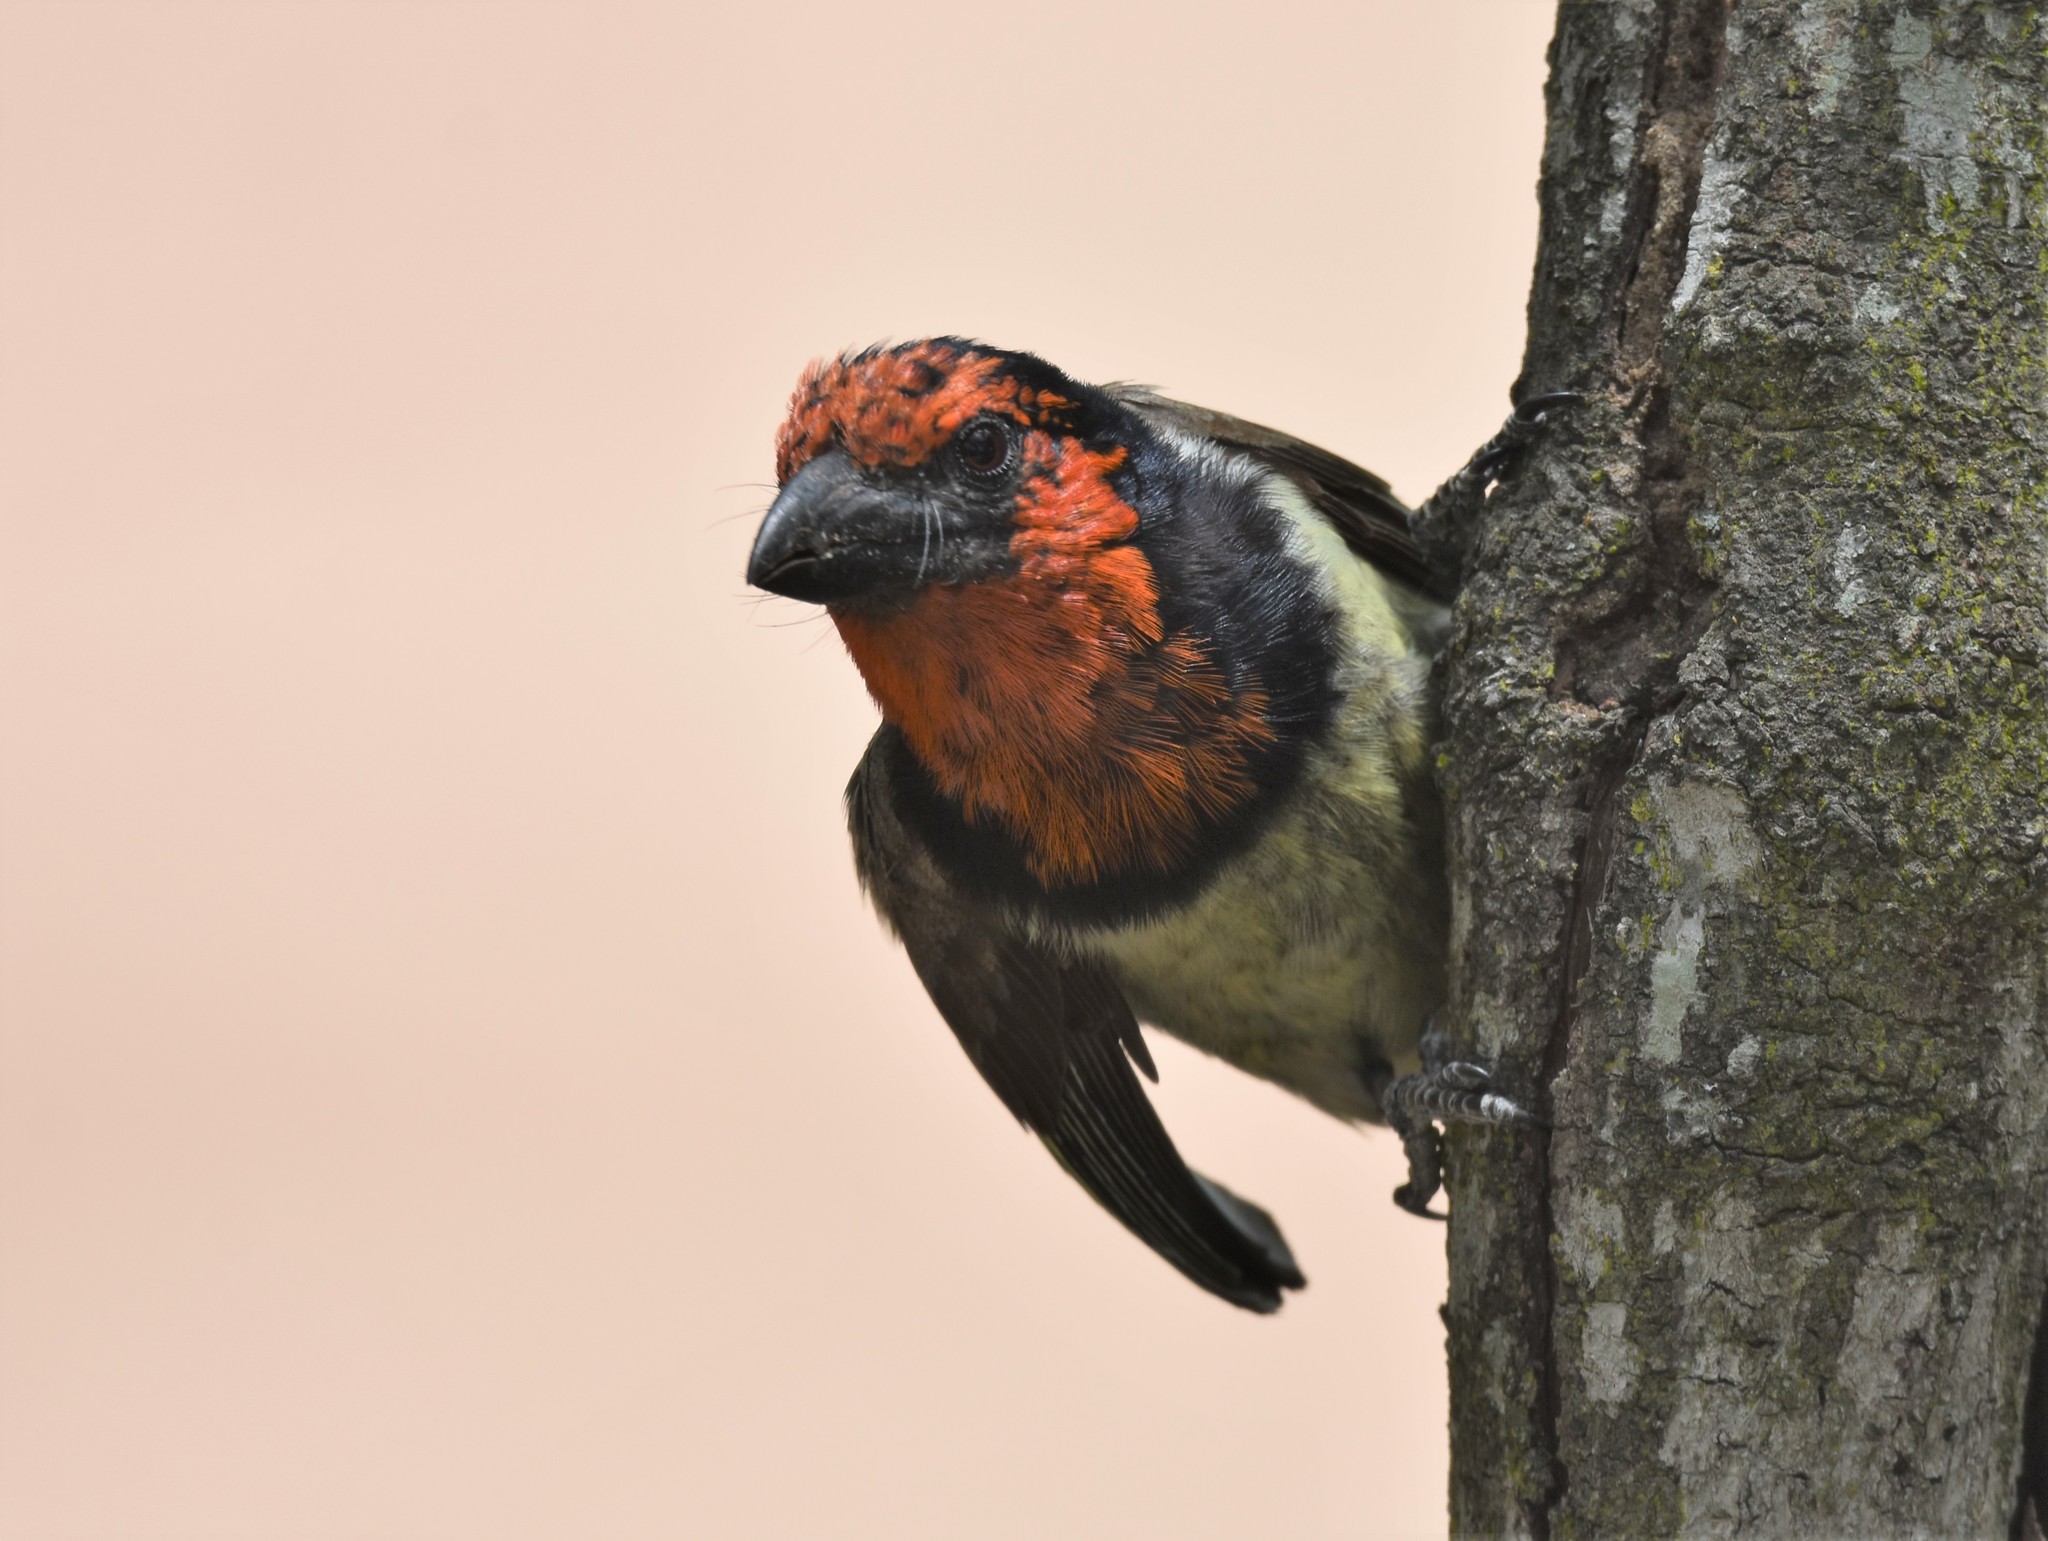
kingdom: Animalia
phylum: Chordata
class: Aves
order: Piciformes
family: Lybiidae
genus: Lybius
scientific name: Lybius torquatus
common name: Black-collared barbet
